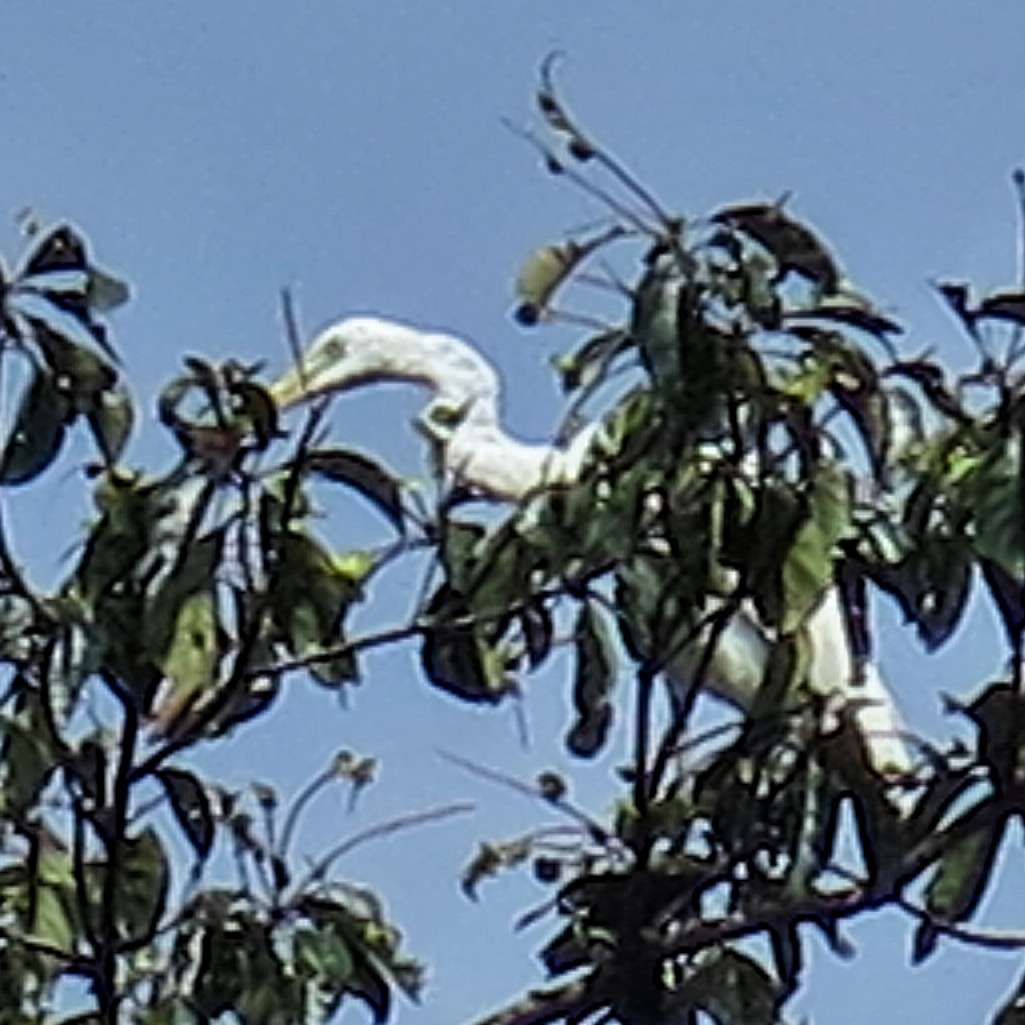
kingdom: Animalia
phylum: Chordata
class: Aves
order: Pelecaniformes
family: Ardeidae
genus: Ardea
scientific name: Ardea alba
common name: Great egret
